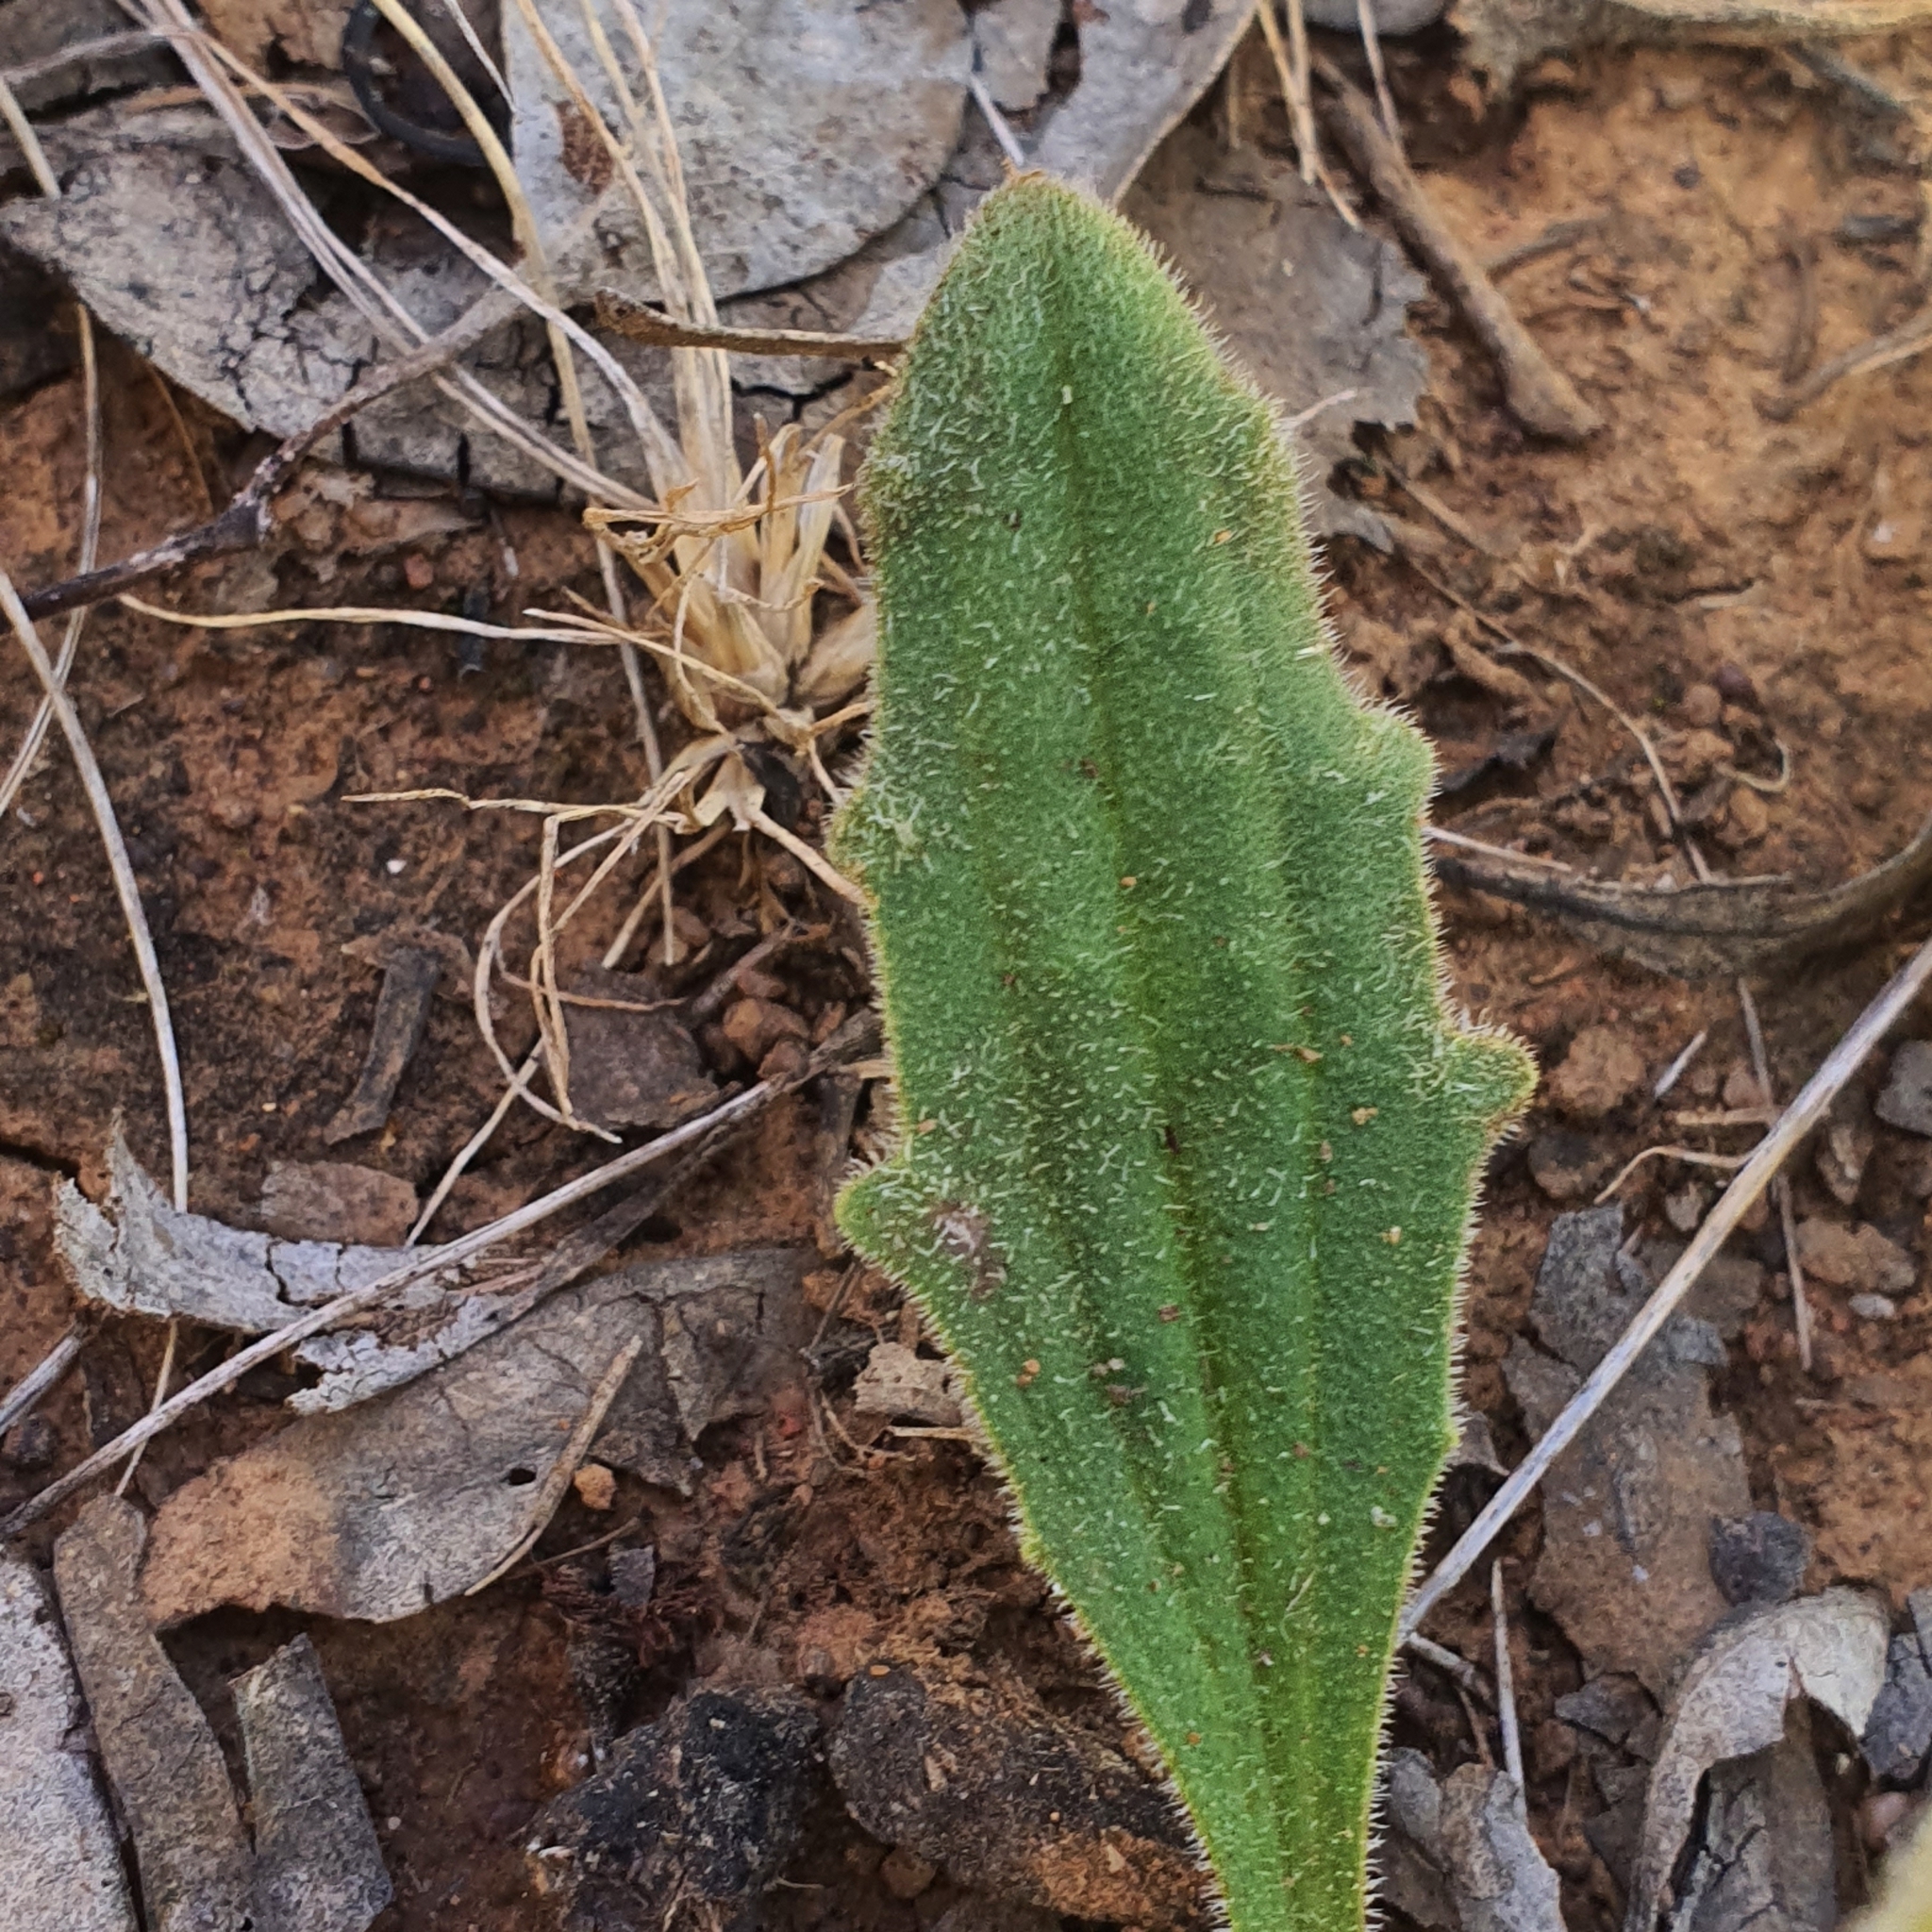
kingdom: Plantae
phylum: Tracheophyta
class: Magnoliopsida
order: Lamiales
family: Plantaginaceae
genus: Plantago
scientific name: Plantago varia
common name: Variable plantain
